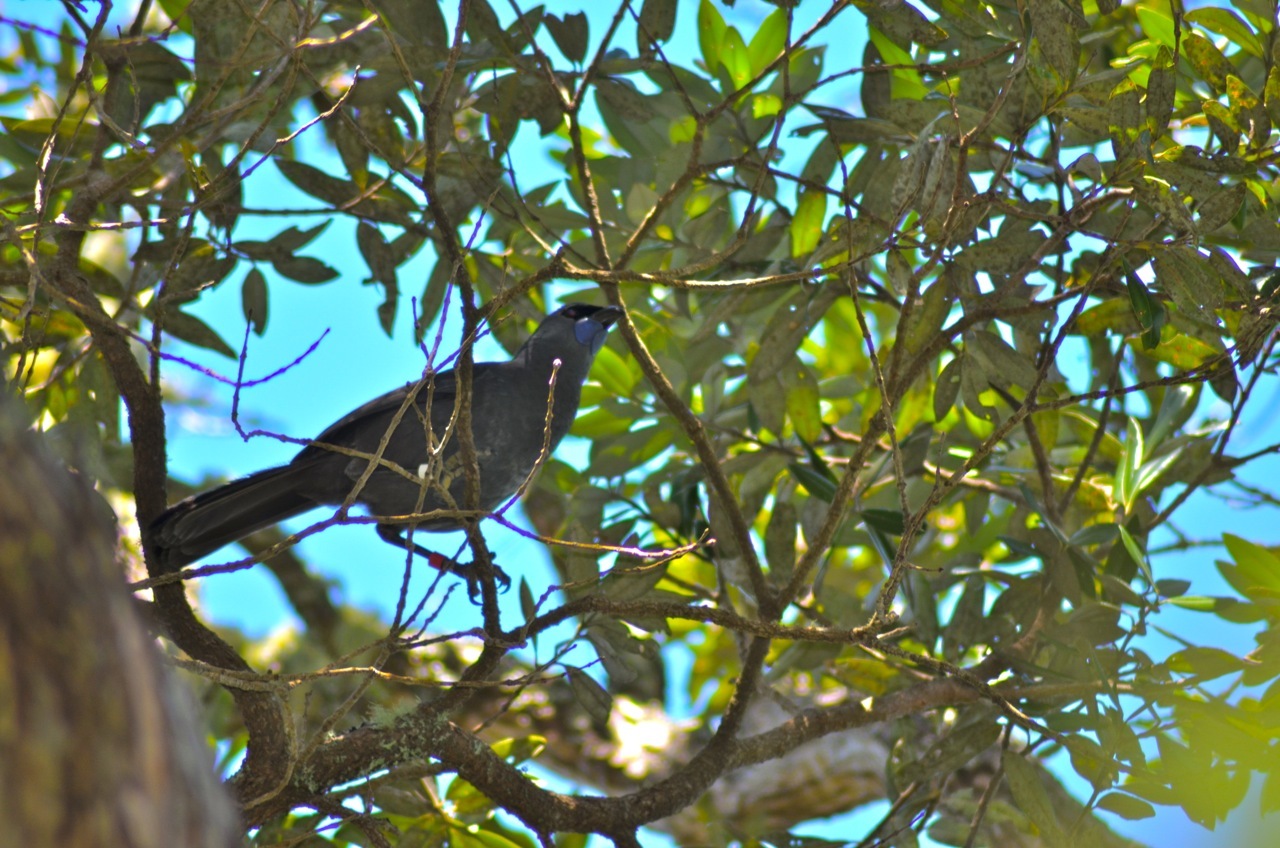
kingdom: Animalia
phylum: Chordata
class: Aves
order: Passeriformes
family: Callaeatidae
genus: Callaeas
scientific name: Callaeas cinereus
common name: South island kokako
